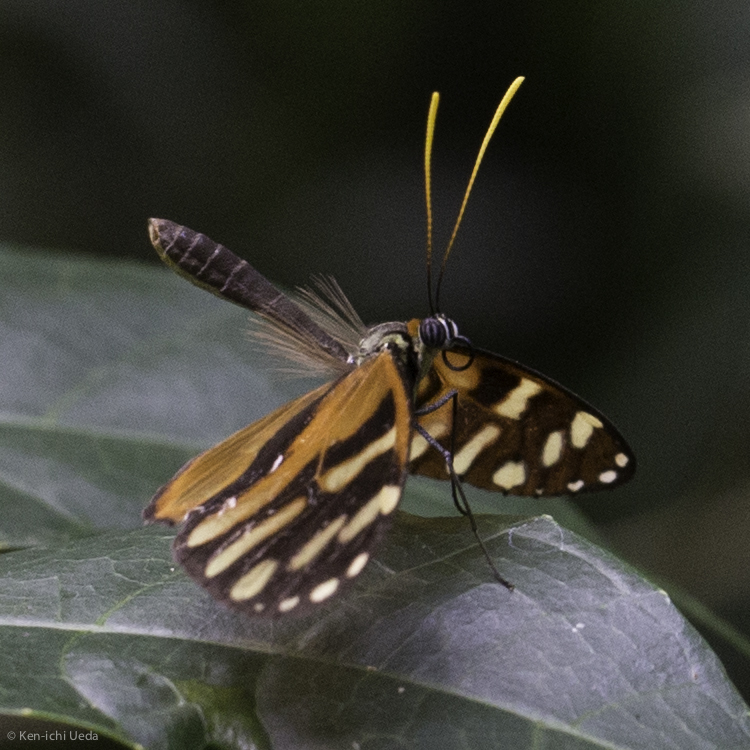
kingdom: Animalia
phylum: Arthropoda
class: Insecta
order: Lepidoptera
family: Nymphalidae
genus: Ithomia
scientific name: Ithomia heraldica
